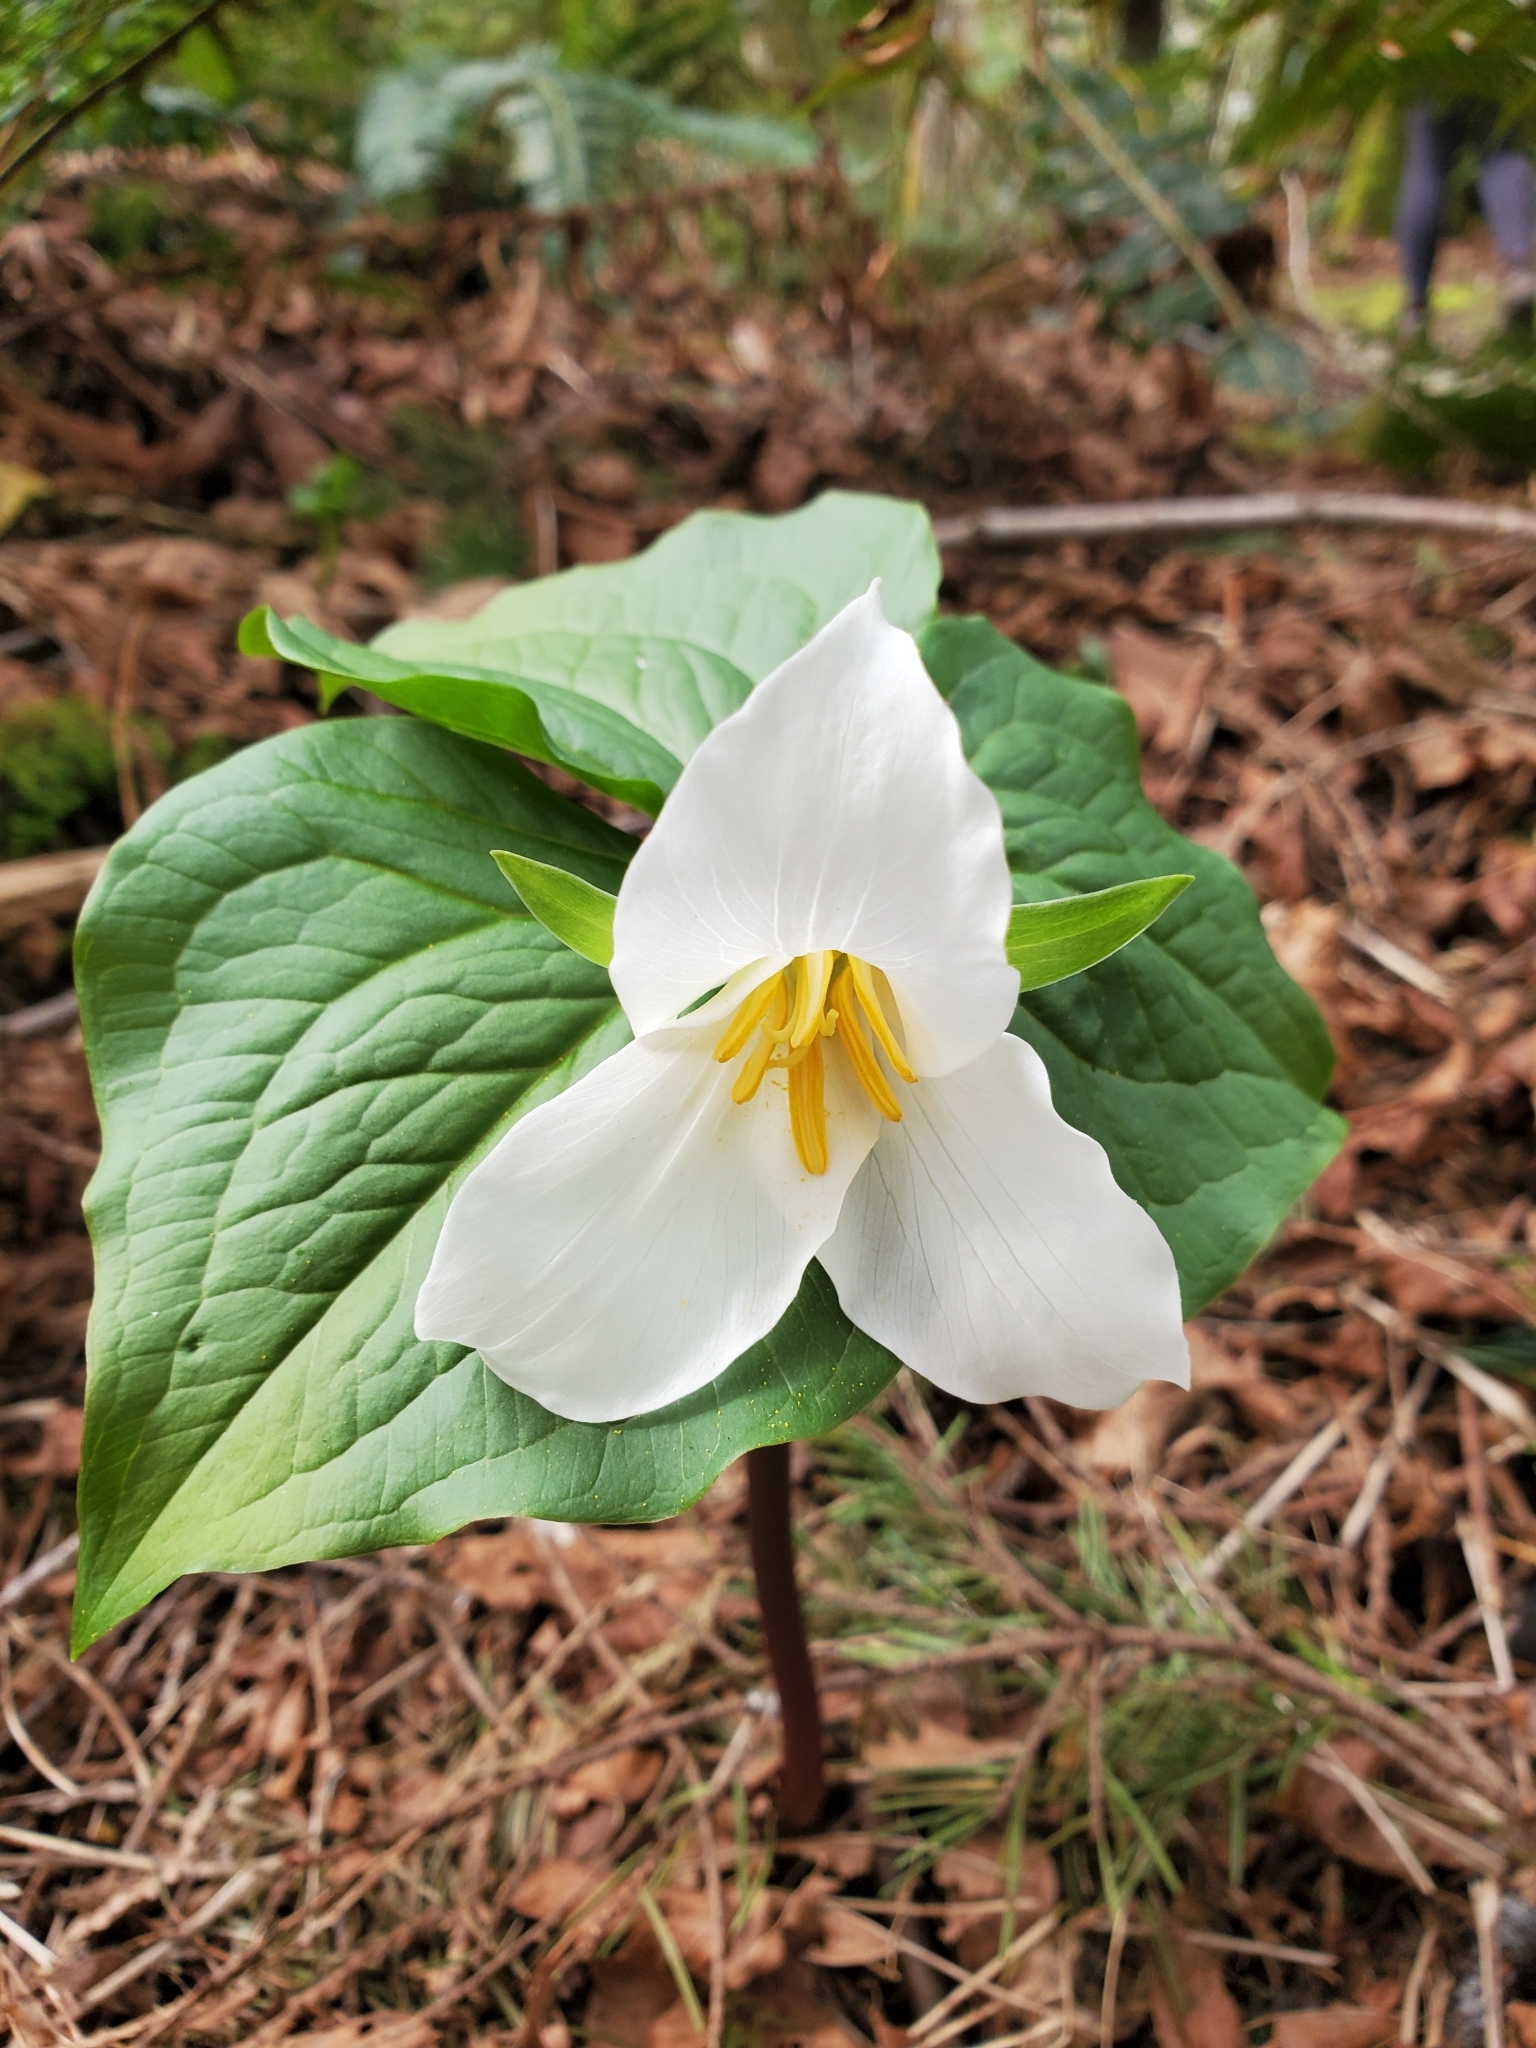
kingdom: Plantae
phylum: Tracheophyta
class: Liliopsida
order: Liliales
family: Melanthiaceae
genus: Trillium
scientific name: Trillium ovatum
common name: Pacific trillium
